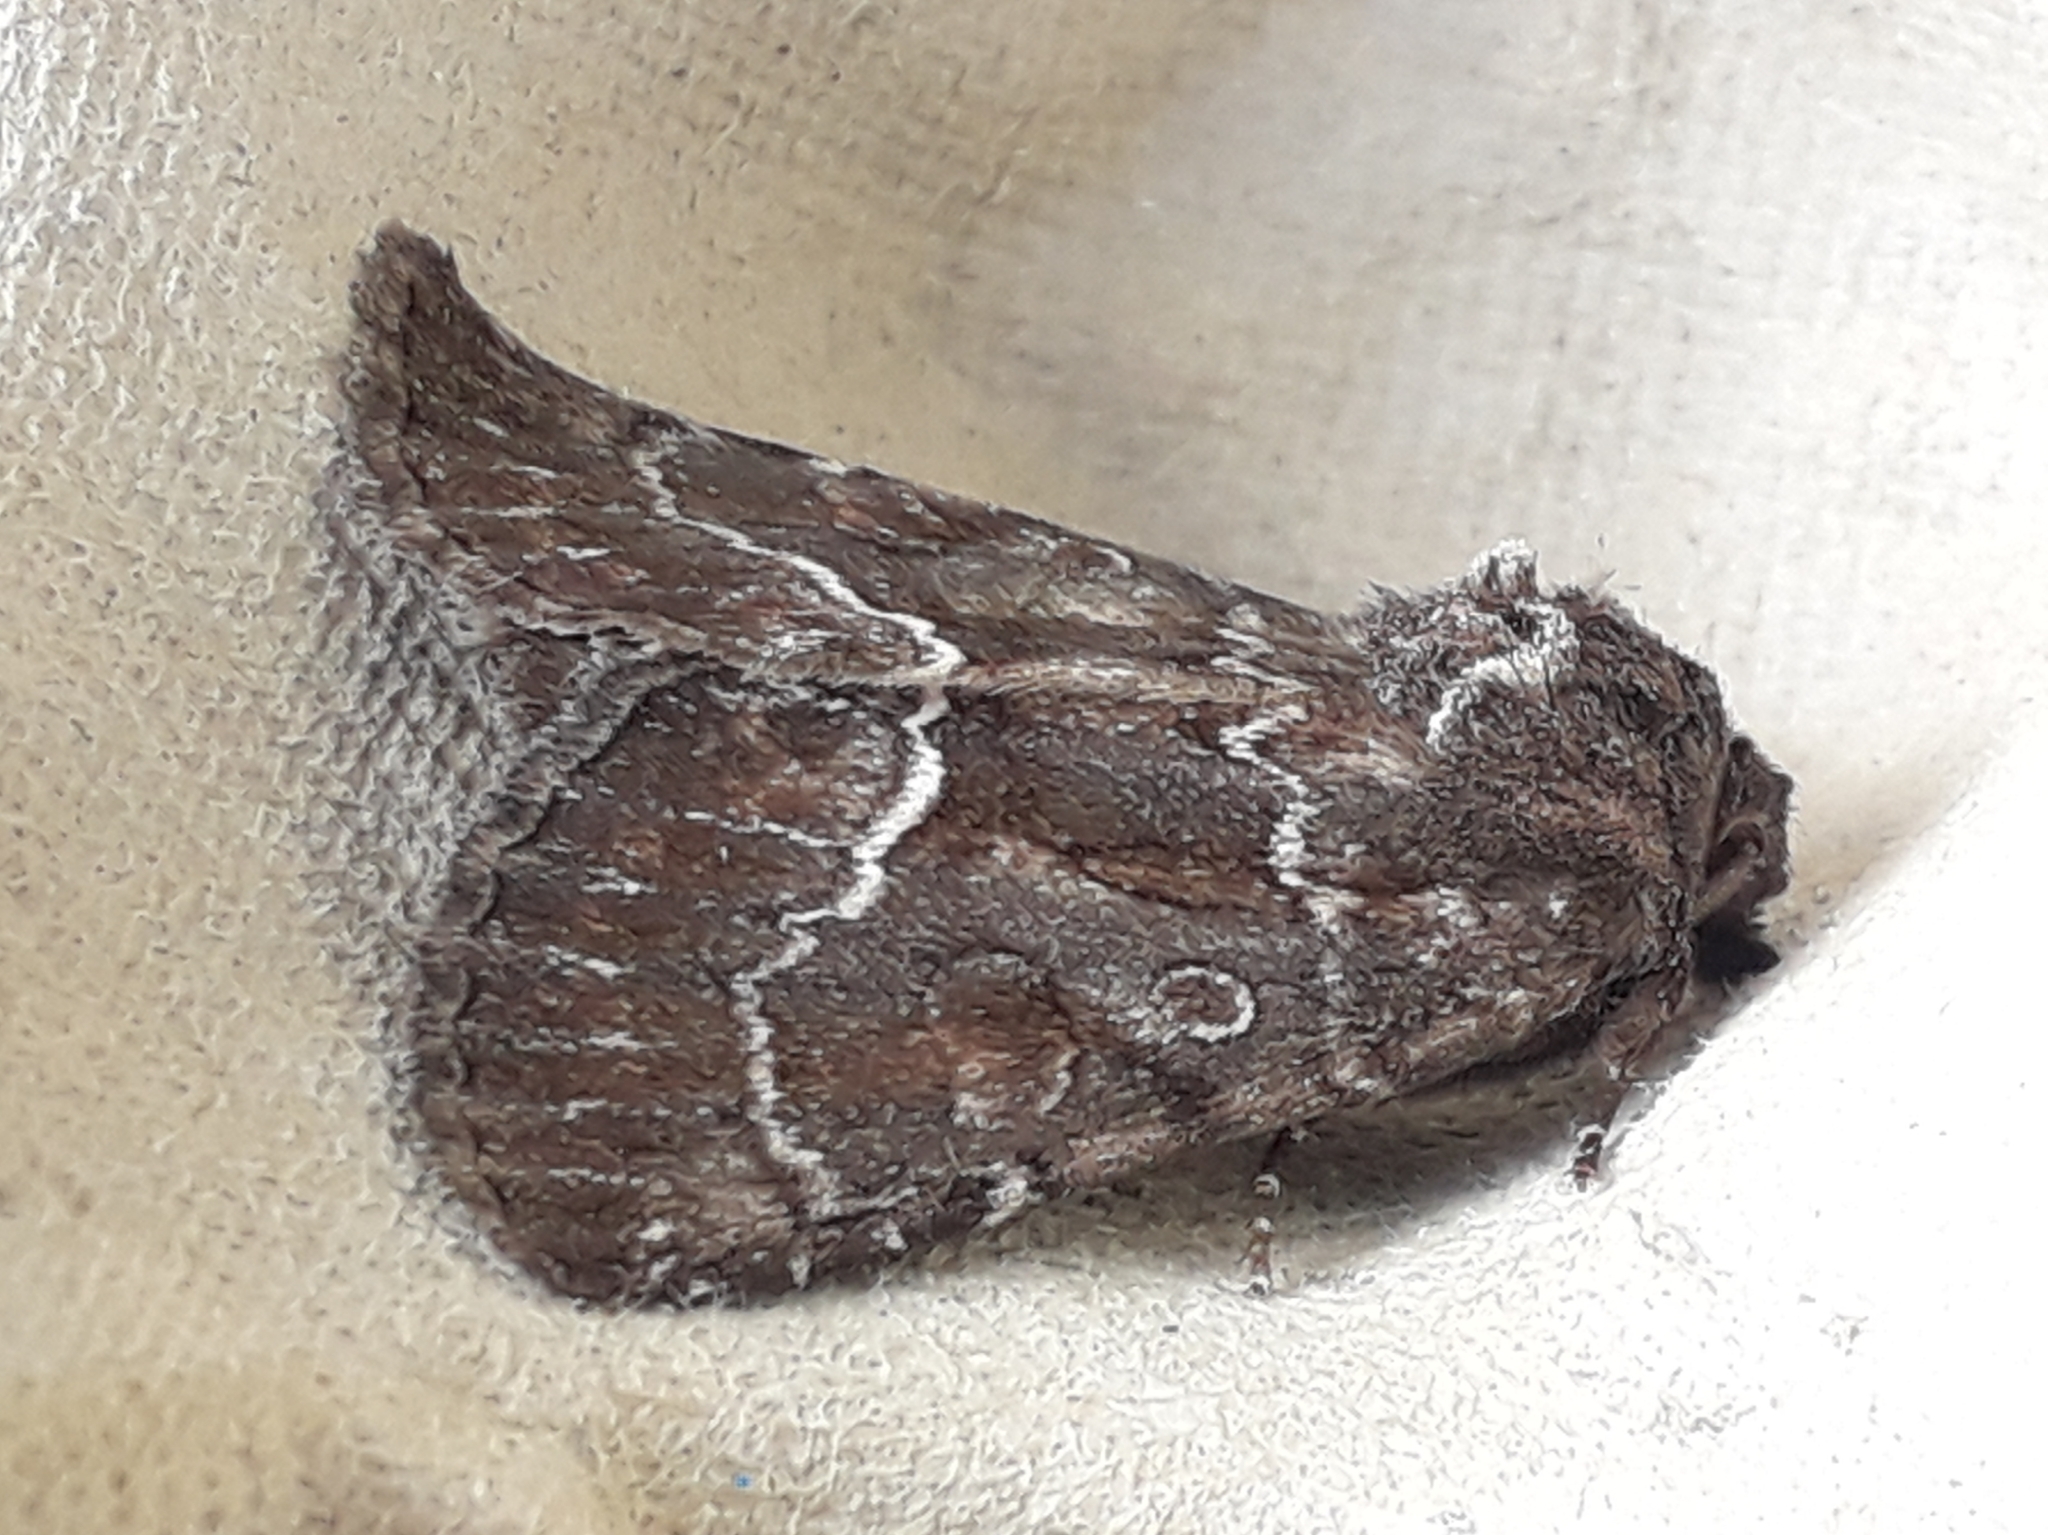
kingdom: Animalia
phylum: Arthropoda
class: Insecta
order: Lepidoptera
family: Noctuidae
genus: Thalpophila
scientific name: Thalpophila matura
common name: Straw underwing
